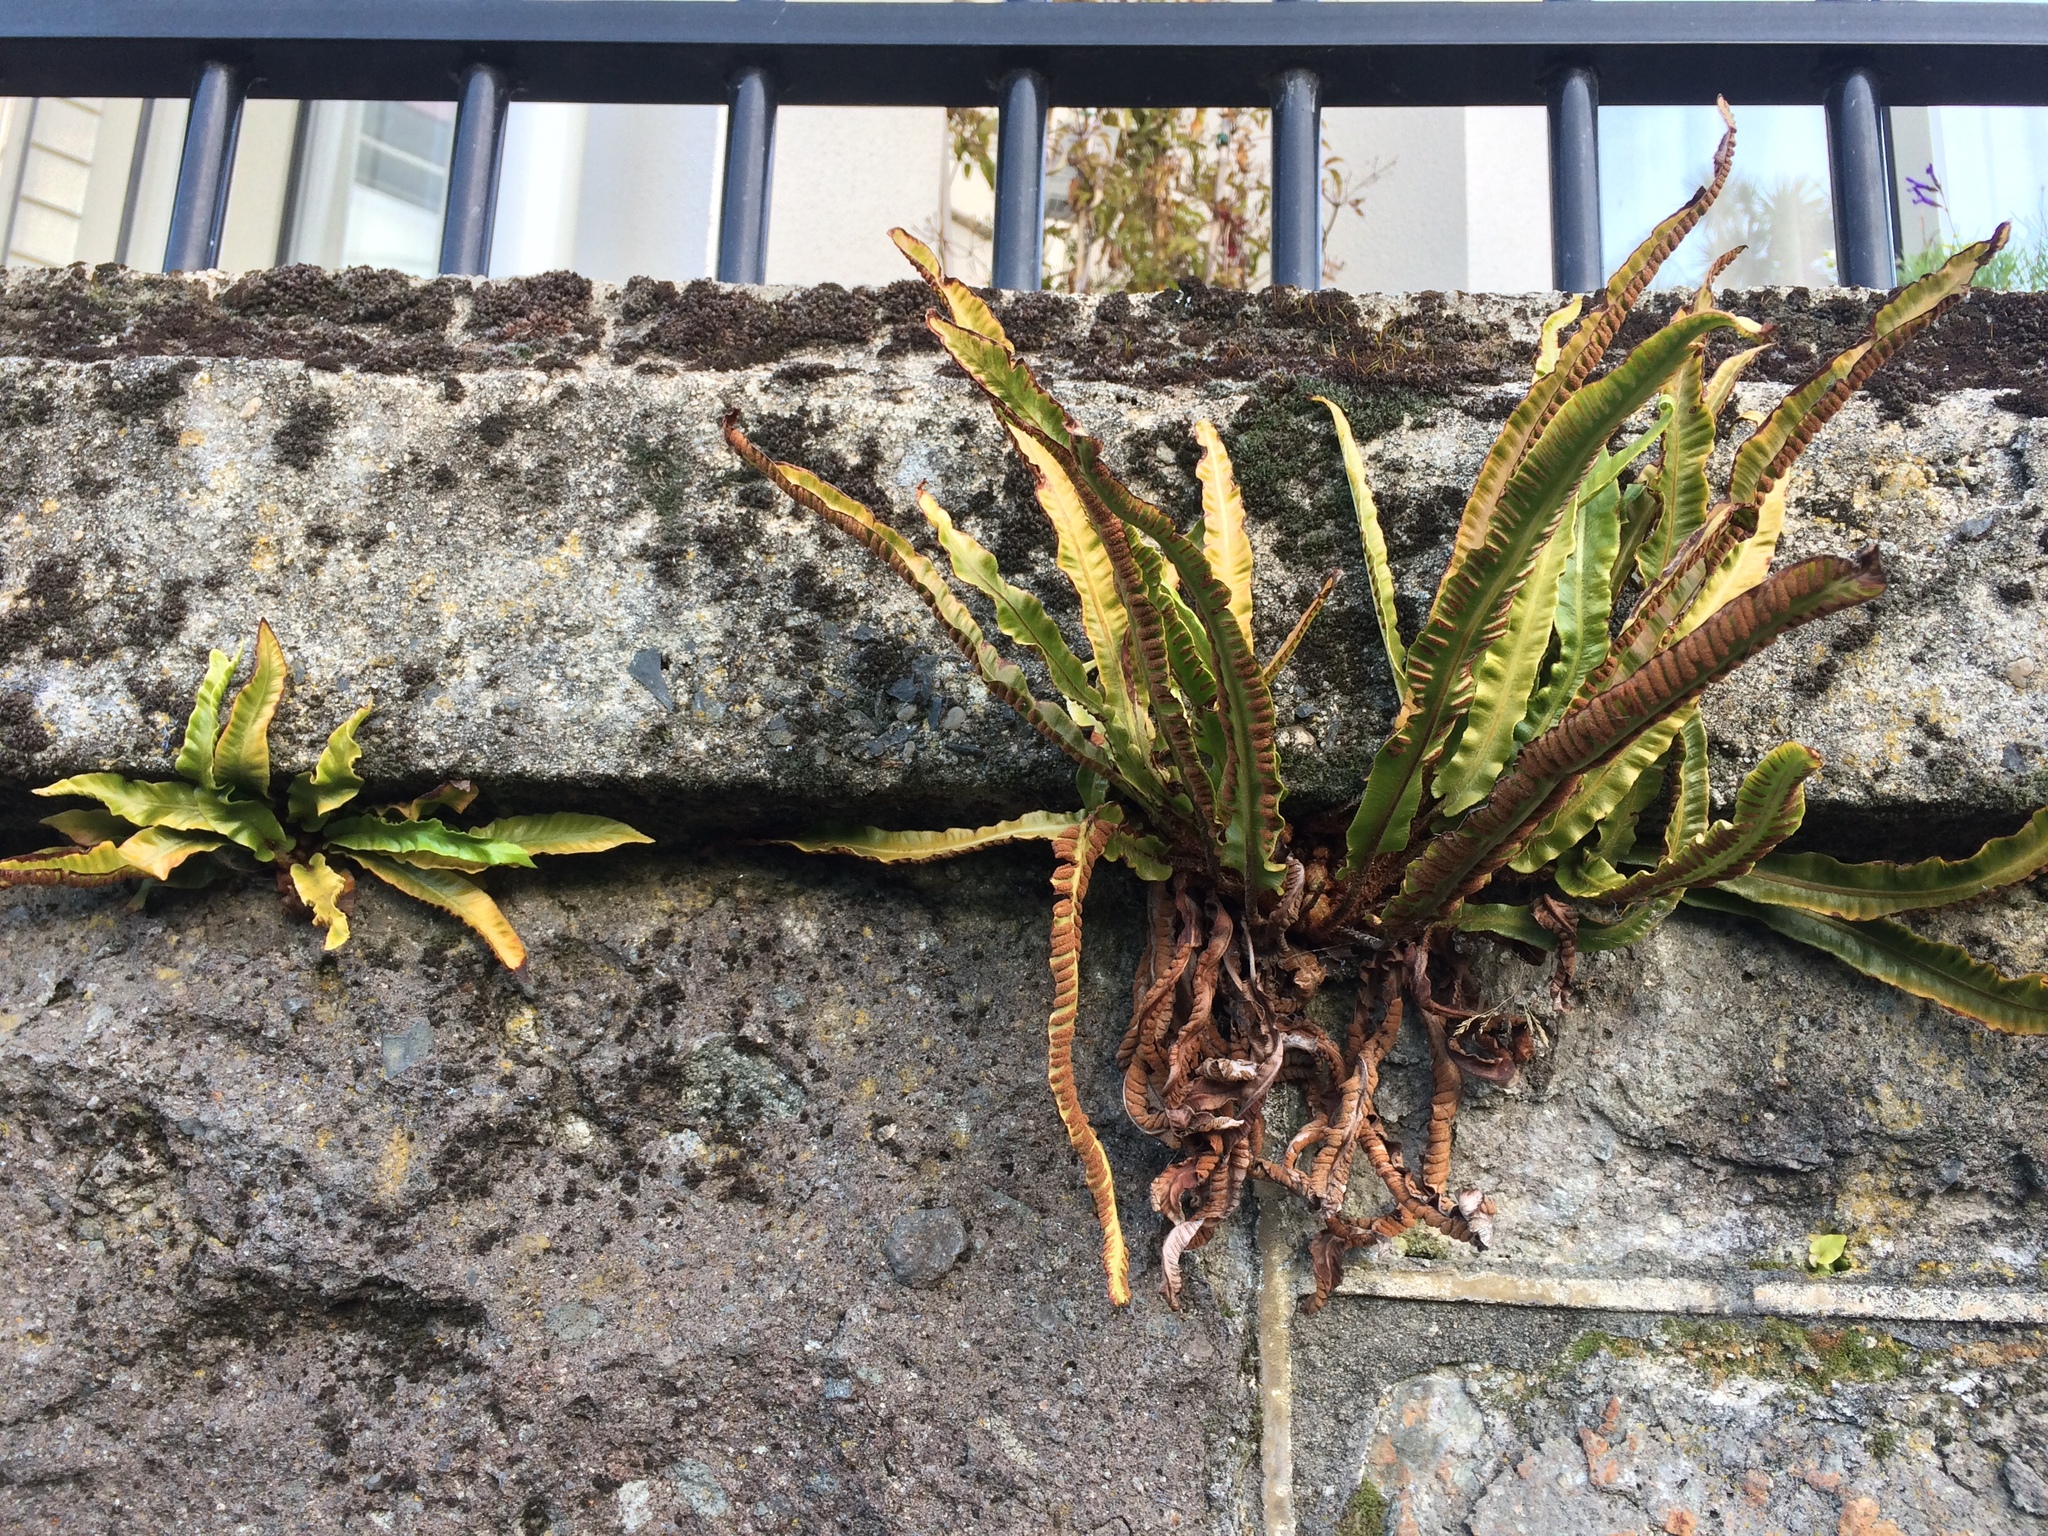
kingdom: Plantae
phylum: Tracheophyta
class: Polypodiopsida
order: Polypodiales
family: Aspleniaceae
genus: Asplenium
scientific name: Asplenium scolopendrium
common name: Hart's-tongue fern
